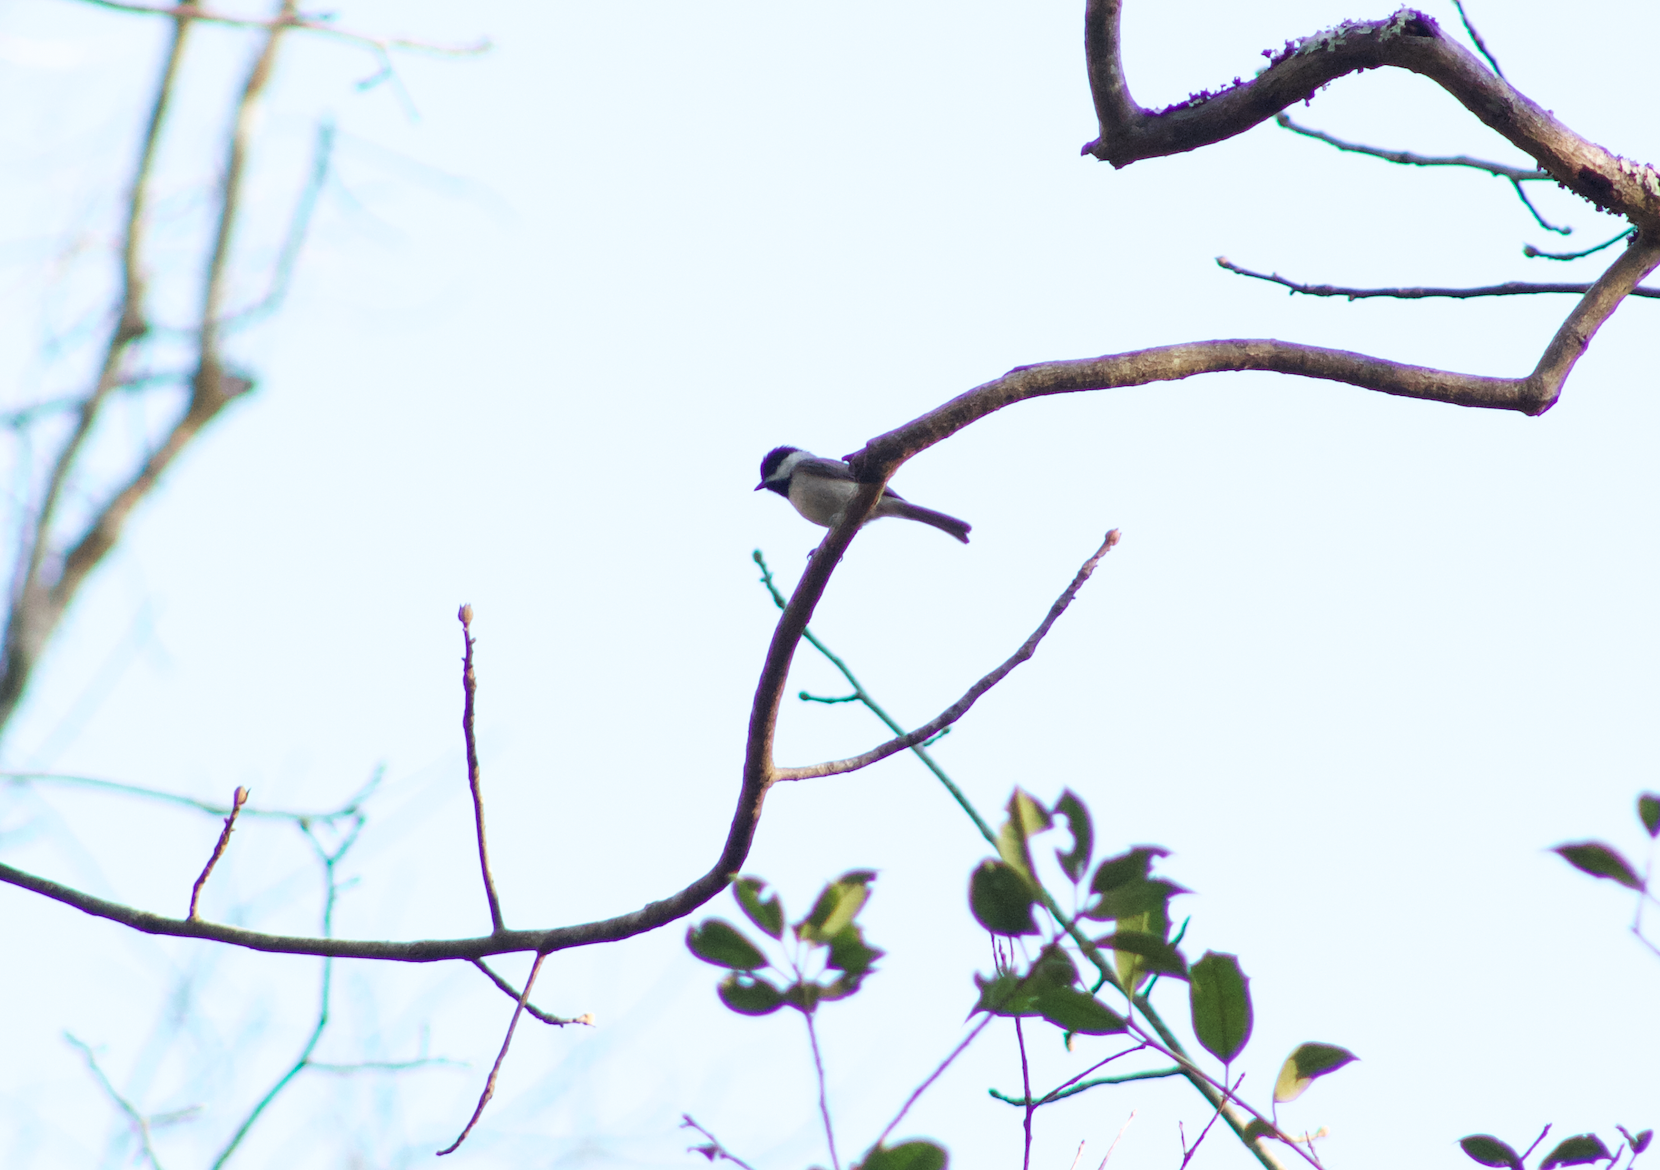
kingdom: Animalia
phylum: Chordata
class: Aves
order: Passeriformes
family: Paridae
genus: Poecile
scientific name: Poecile carolinensis
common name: Carolina chickadee
